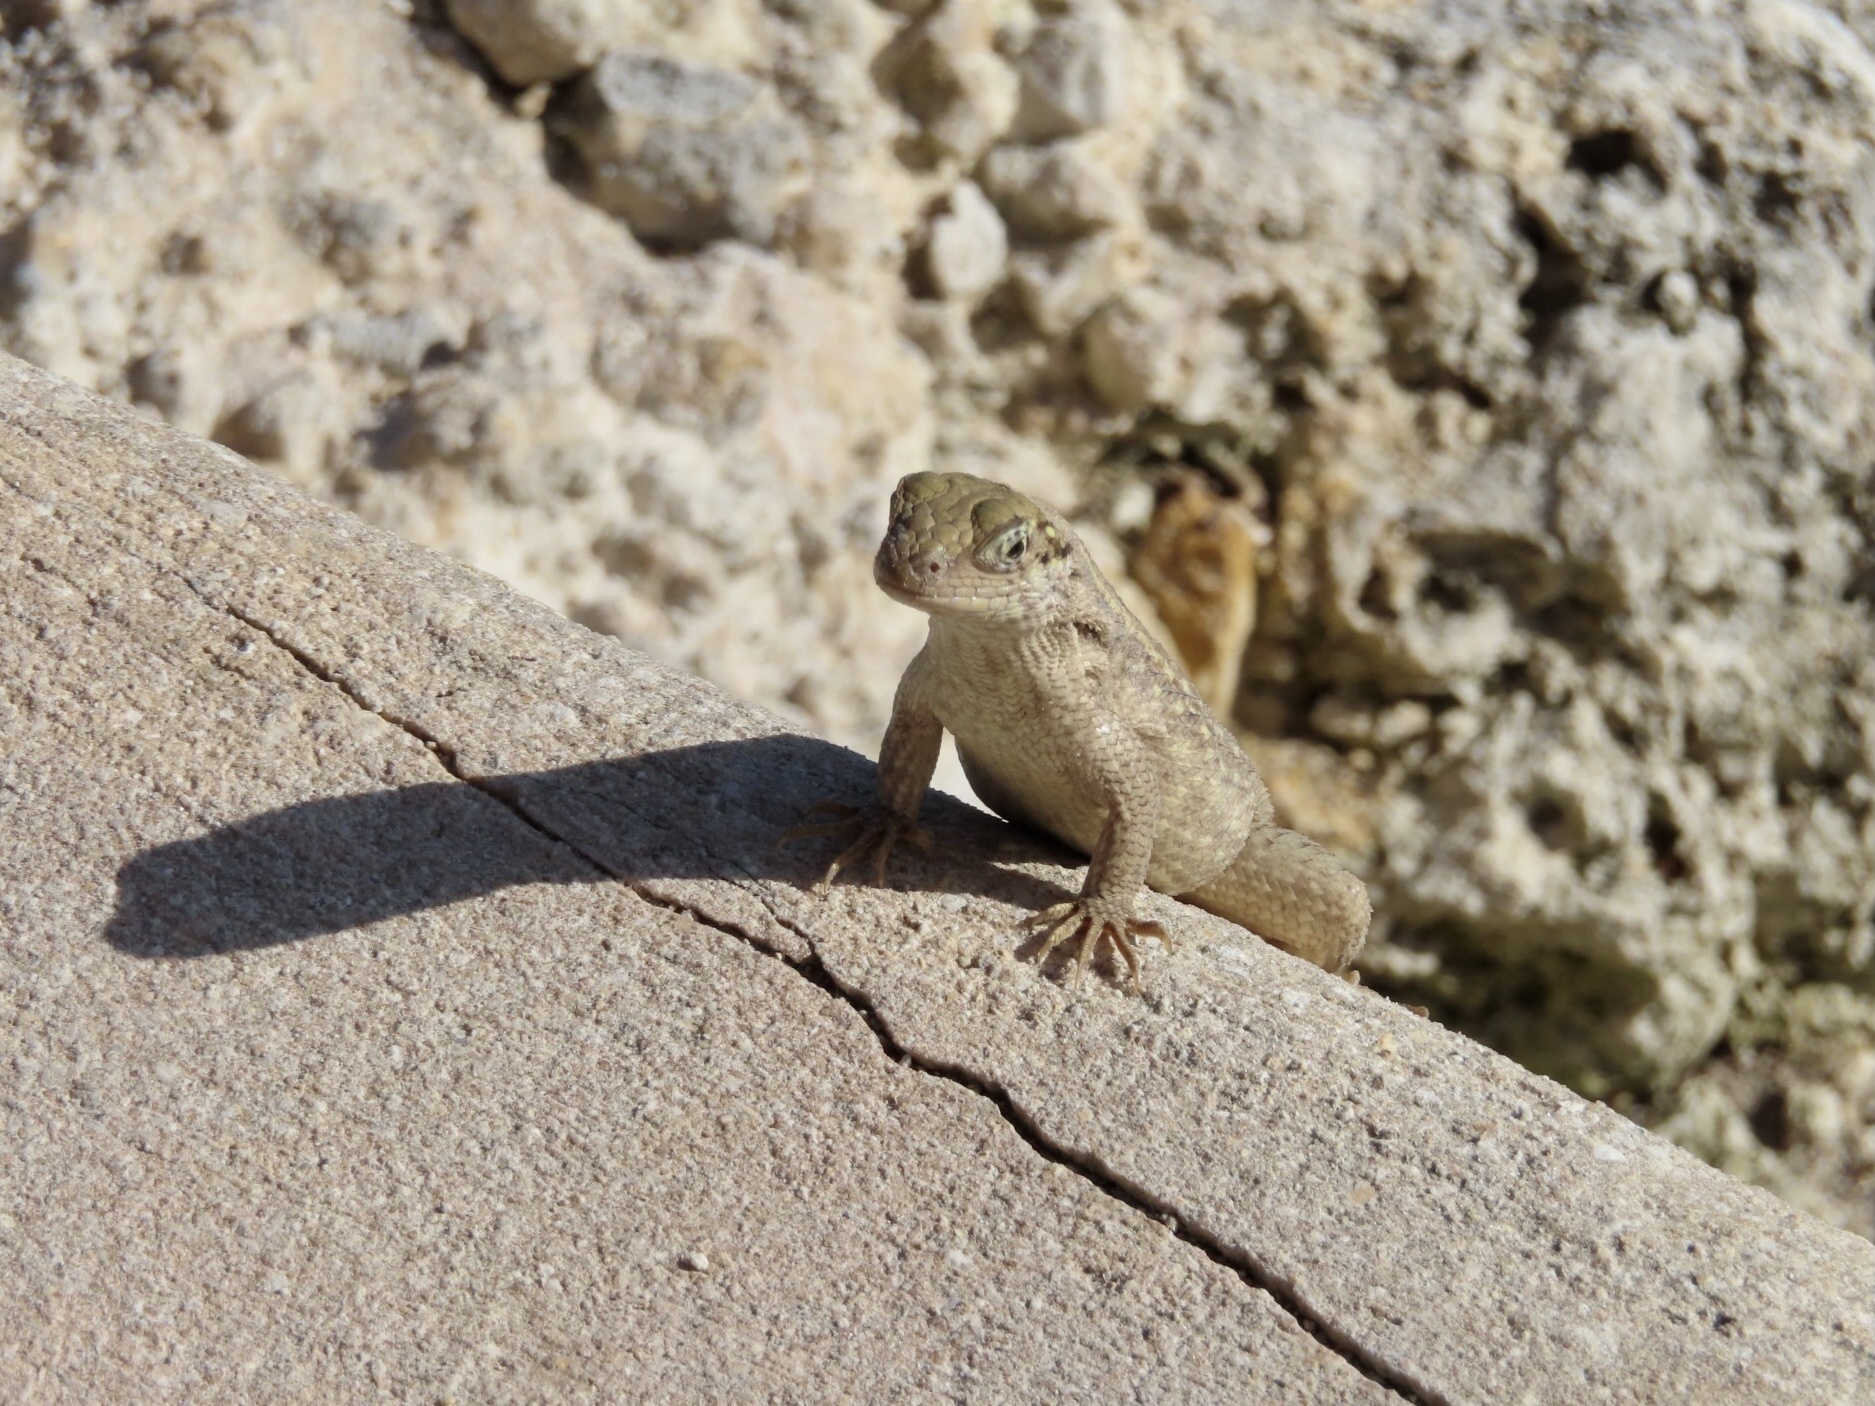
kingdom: Animalia
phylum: Chordata
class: Squamata
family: Leiocephalidae
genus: Leiocephalus
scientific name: Leiocephalus carinatus
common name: Northern curly-tailed lizard
